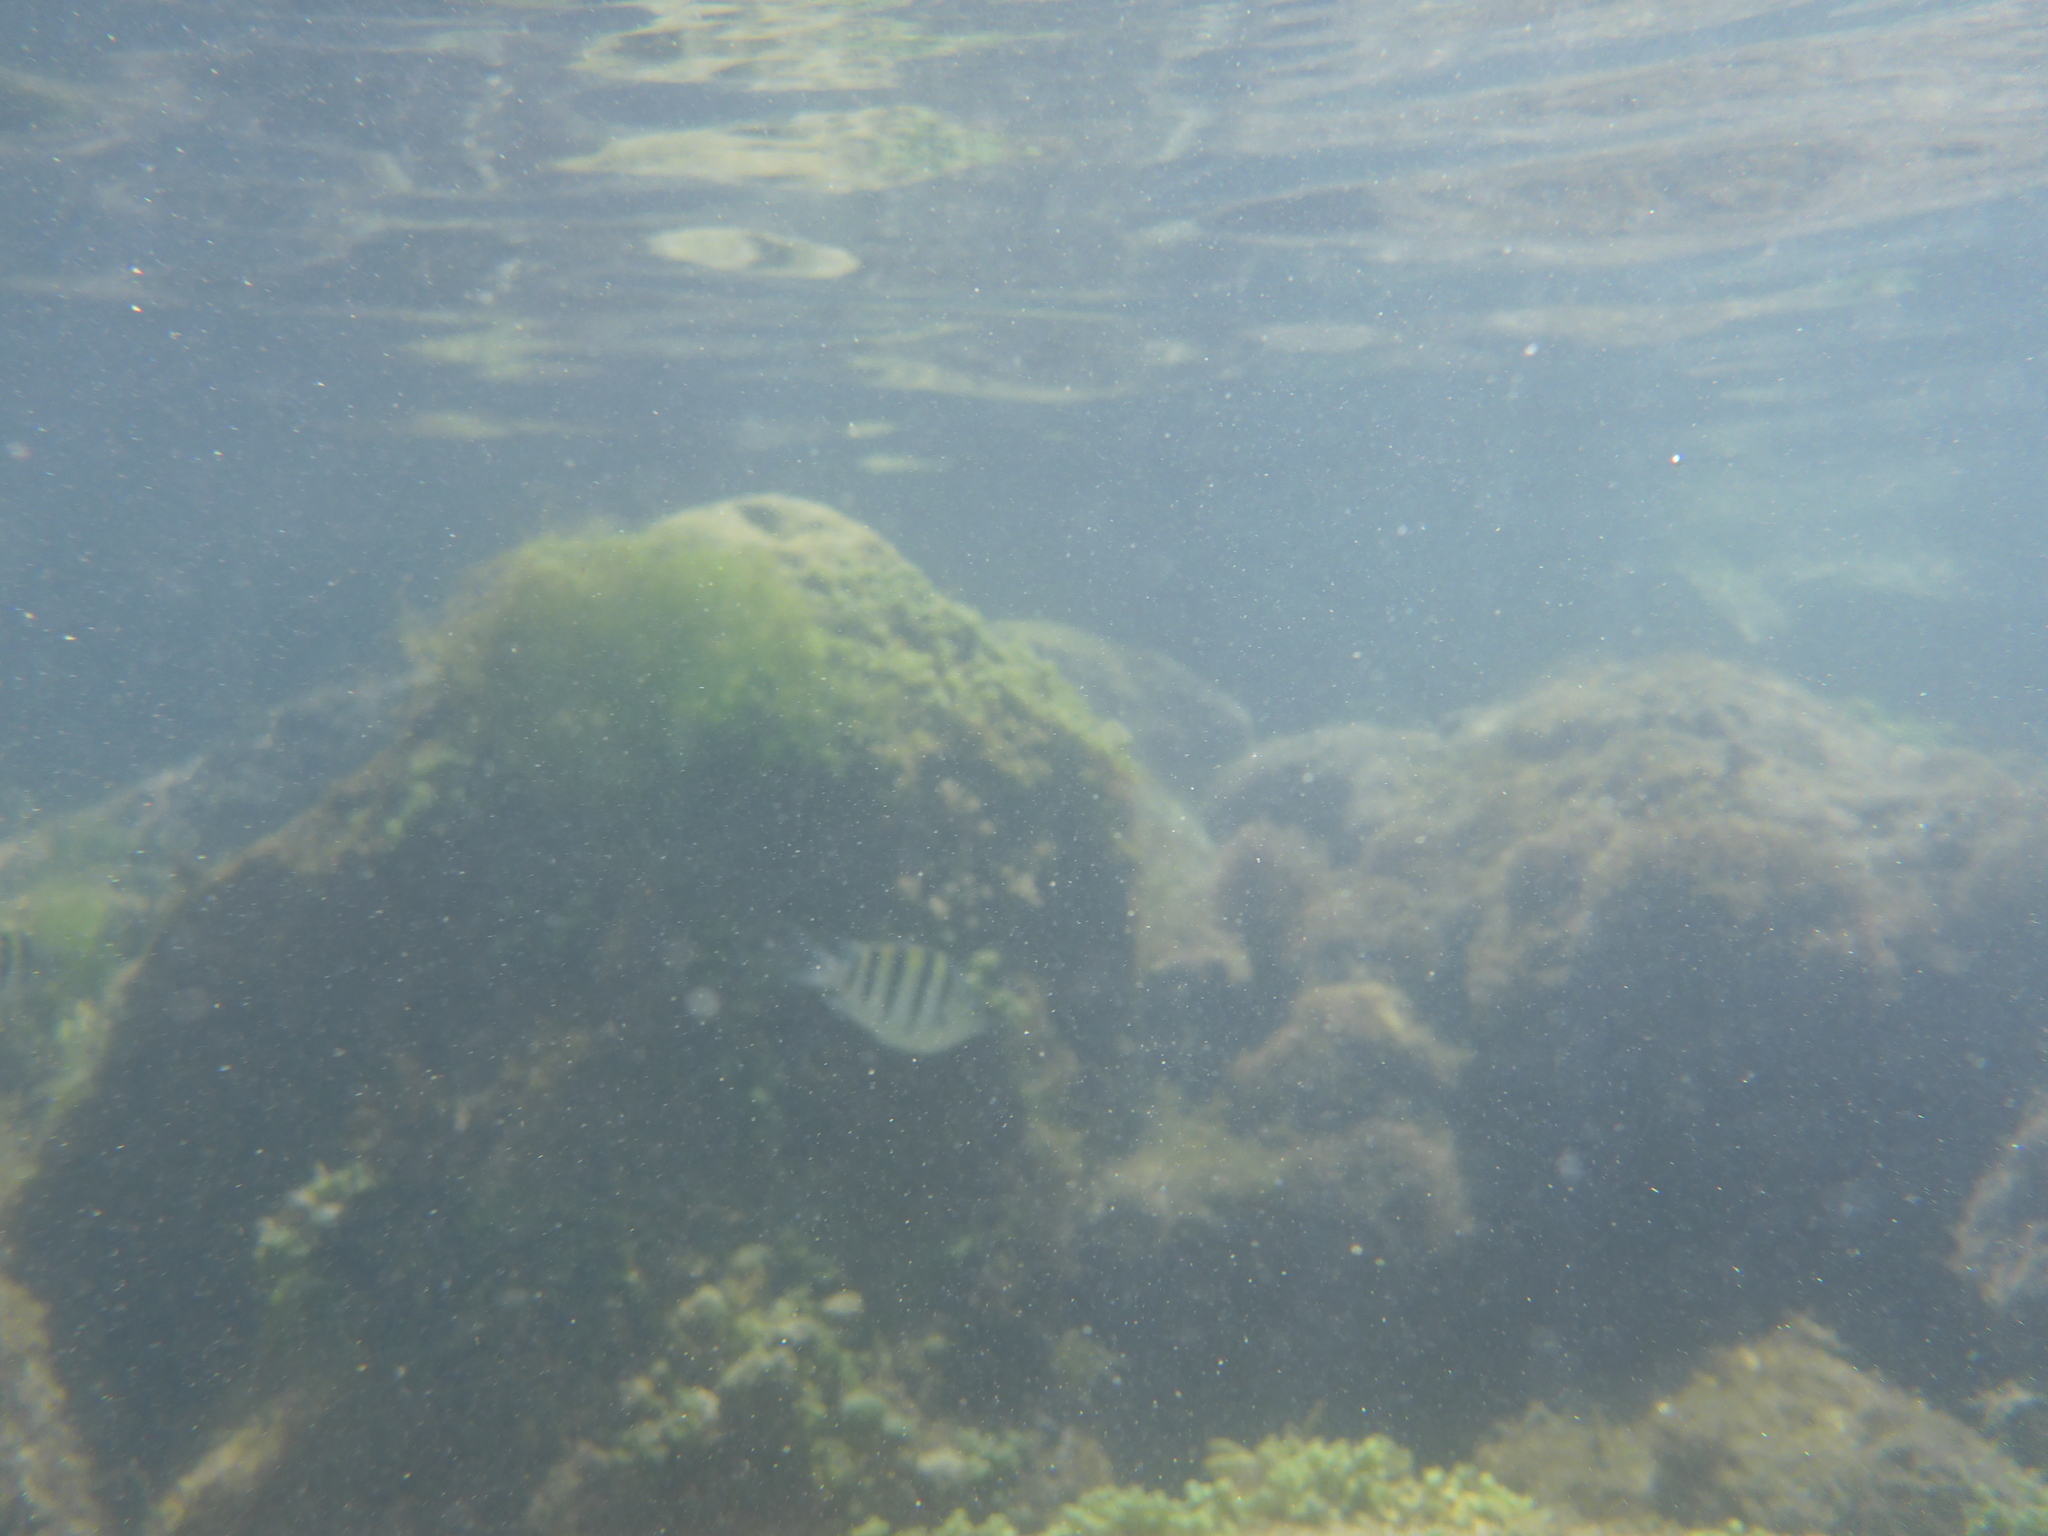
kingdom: Animalia
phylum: Chordata
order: Perciformes
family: Pomacentridae
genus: Abudefduf
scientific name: Abudefduf saxatilis
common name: Sergeant major
